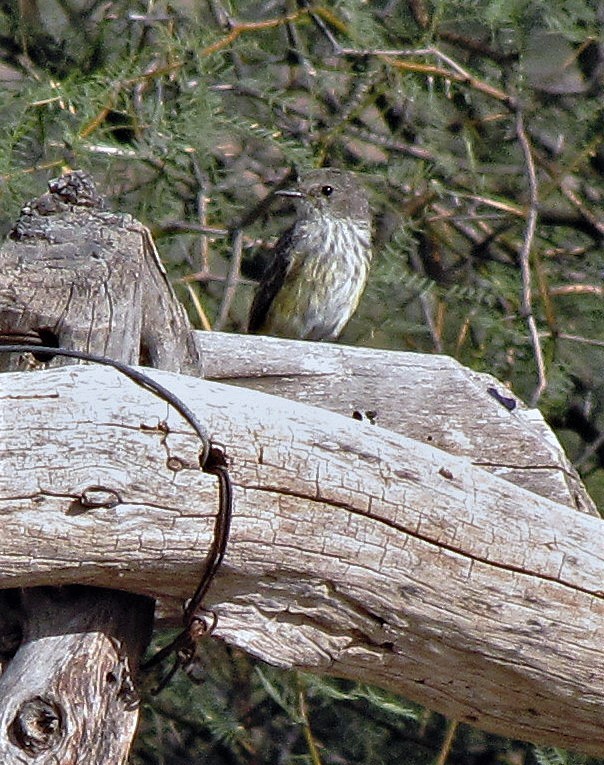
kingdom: Animalia
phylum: Chordata
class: Aves
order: Passeriformes
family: Tyrannidae
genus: Pyrocephalus
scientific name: Pyrocephalus rubinus
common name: Vermilion flycatcher
